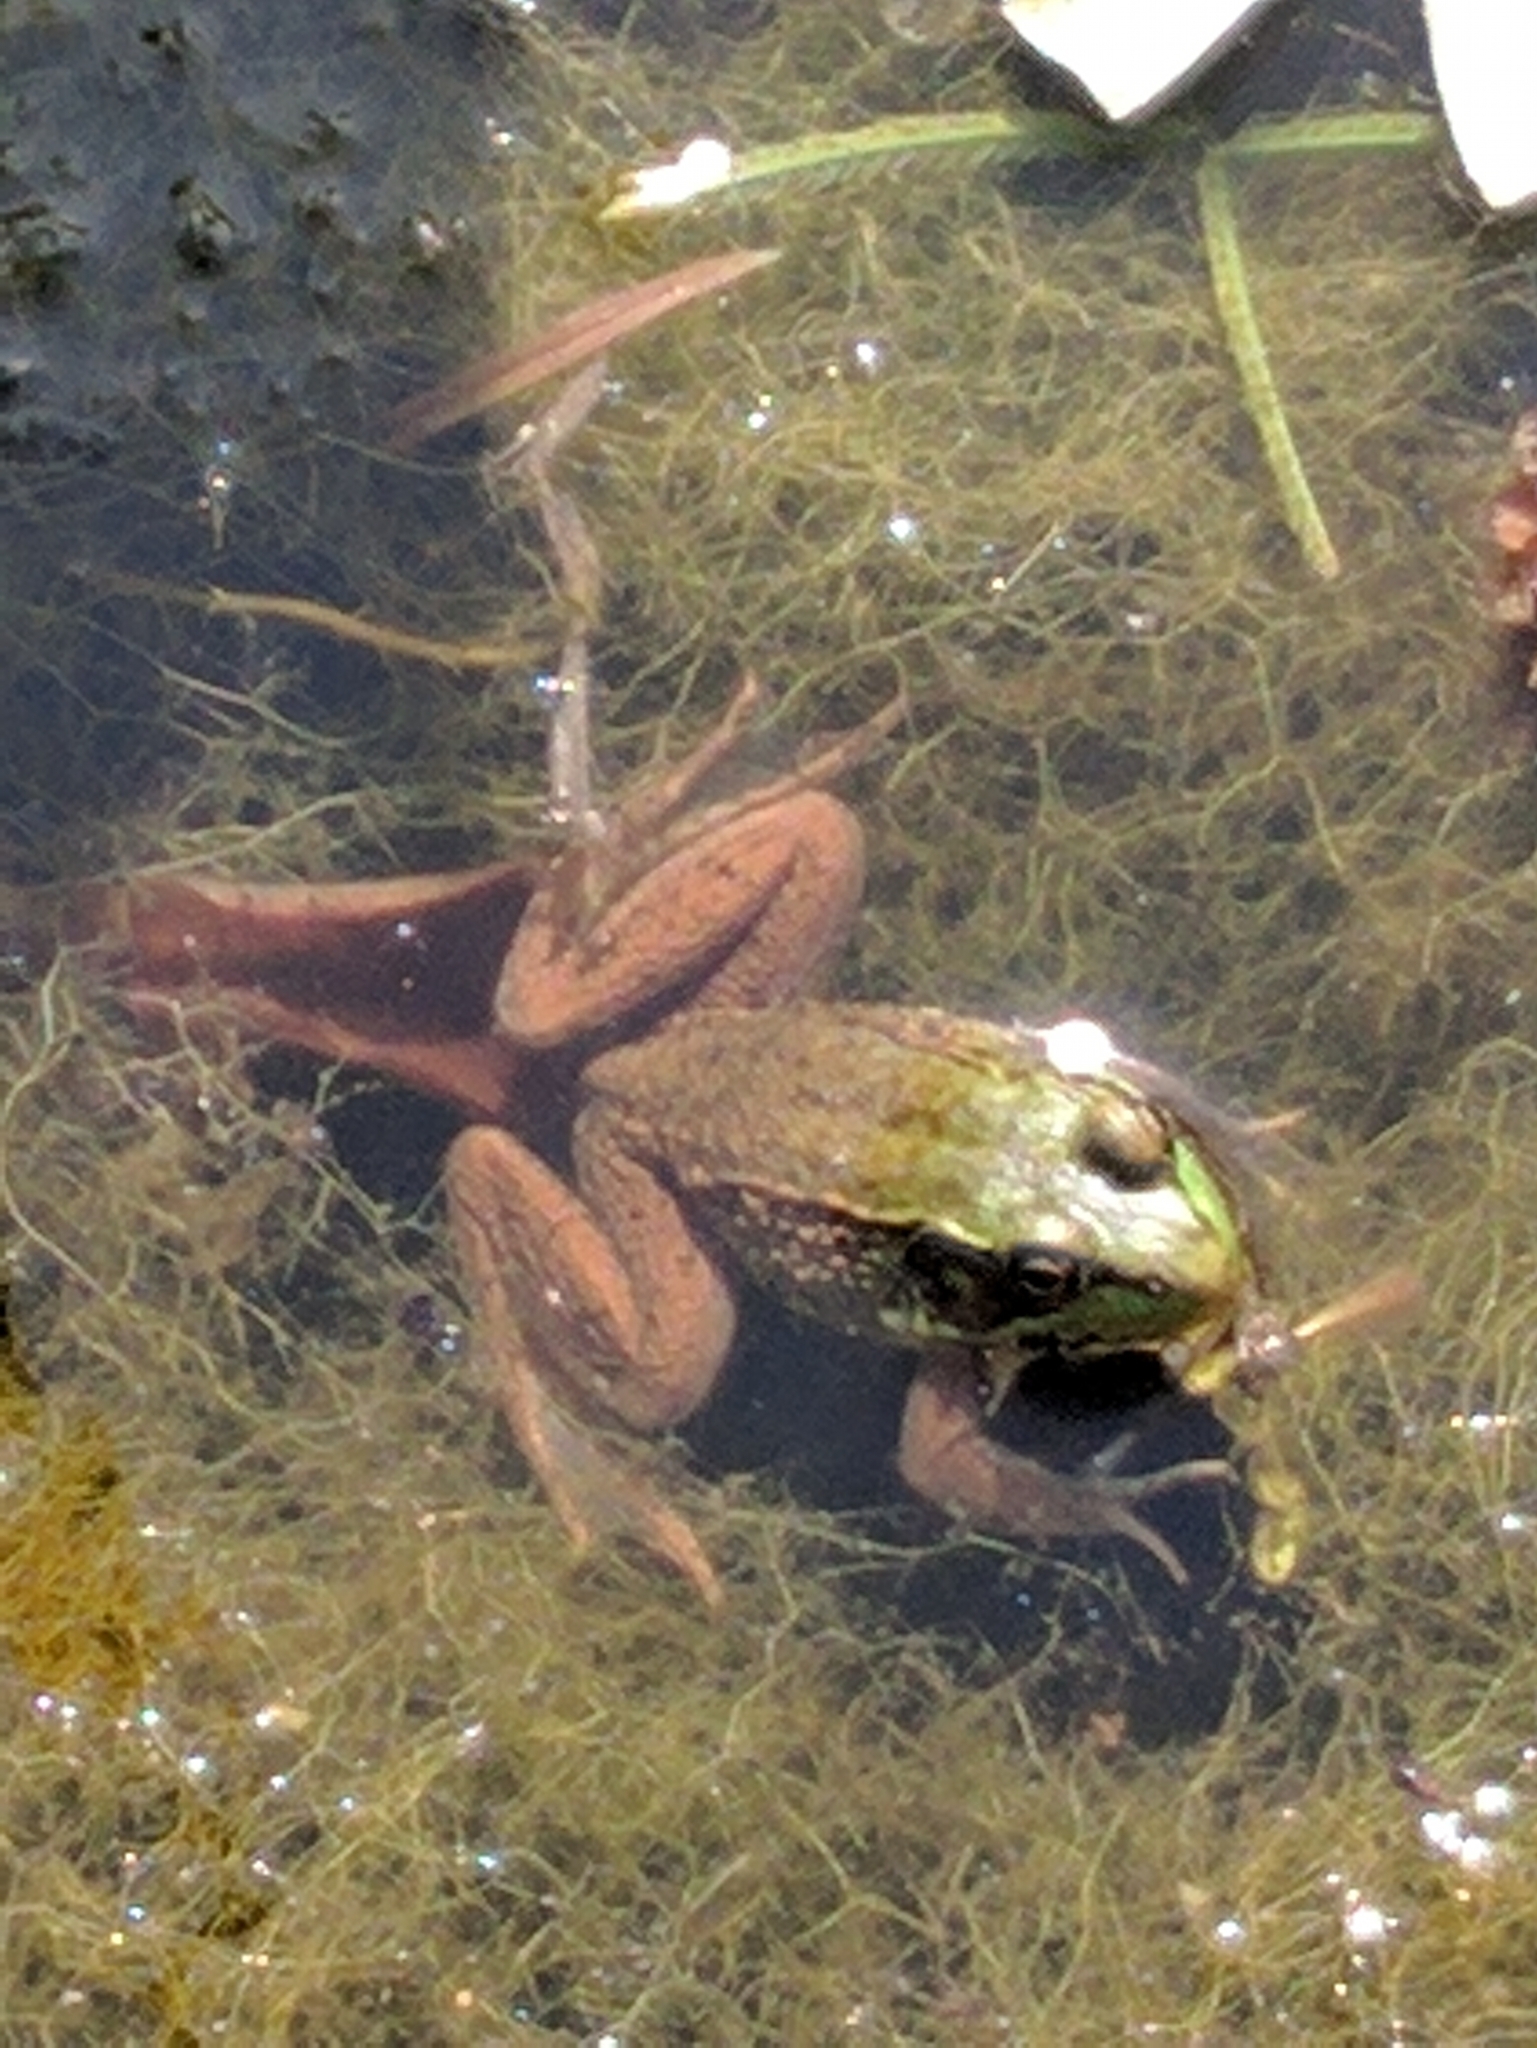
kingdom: Animalia
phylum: Chordata
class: Amphibia
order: Anura
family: Ranidae
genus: Lithobates
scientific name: Lithobates clamitans
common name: Green frog
